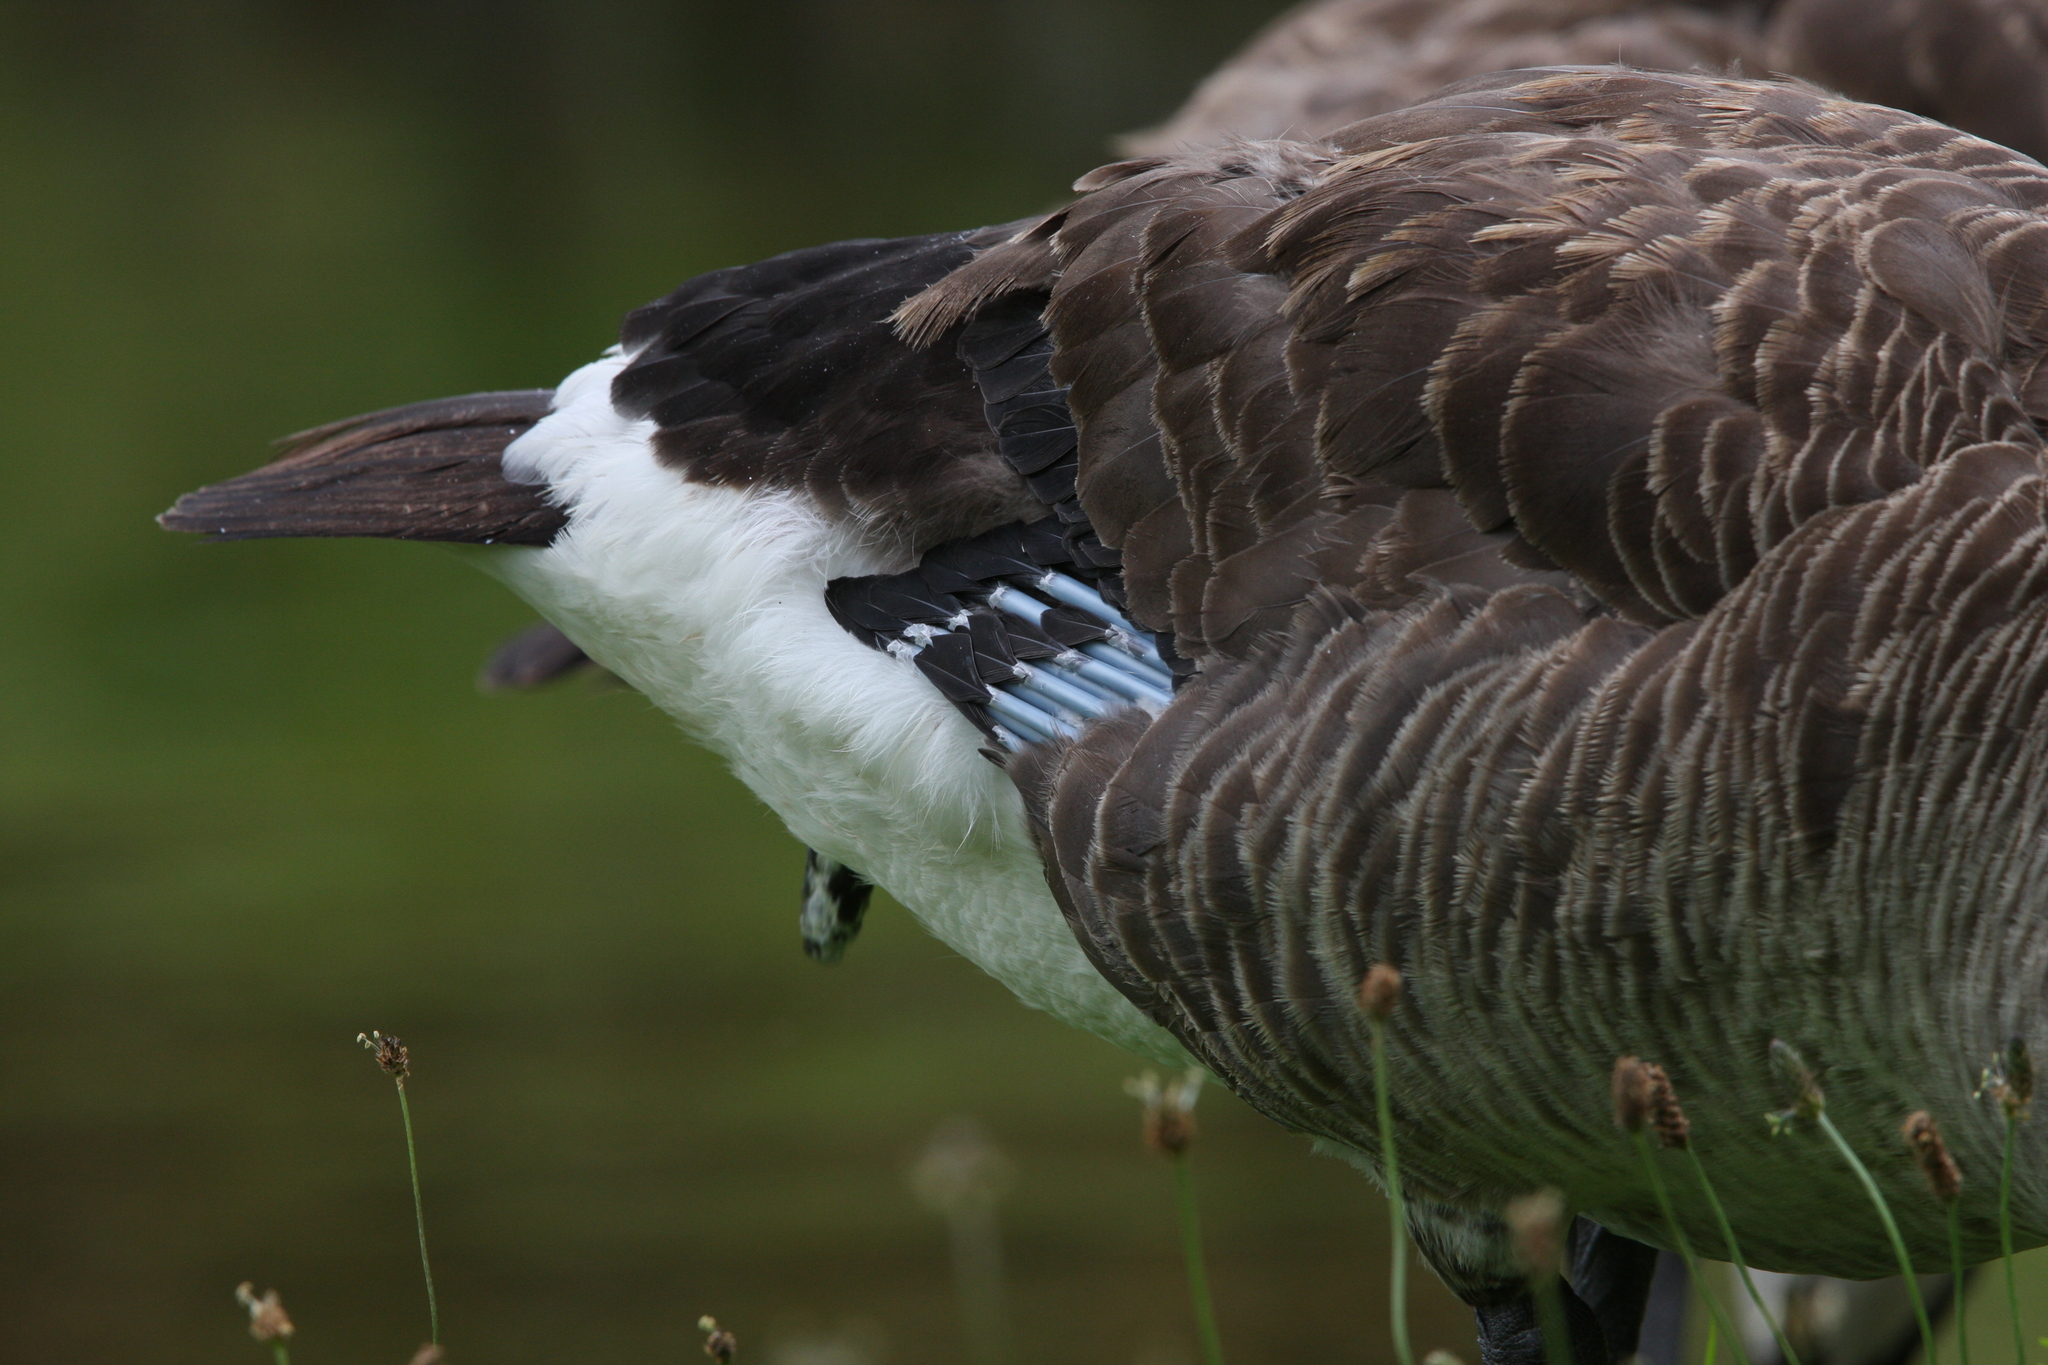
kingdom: Animalia
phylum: Chordata
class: Aves
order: Anseriformes
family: Anatidae
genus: Branta
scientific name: Branta canadensis
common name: Canada goose
